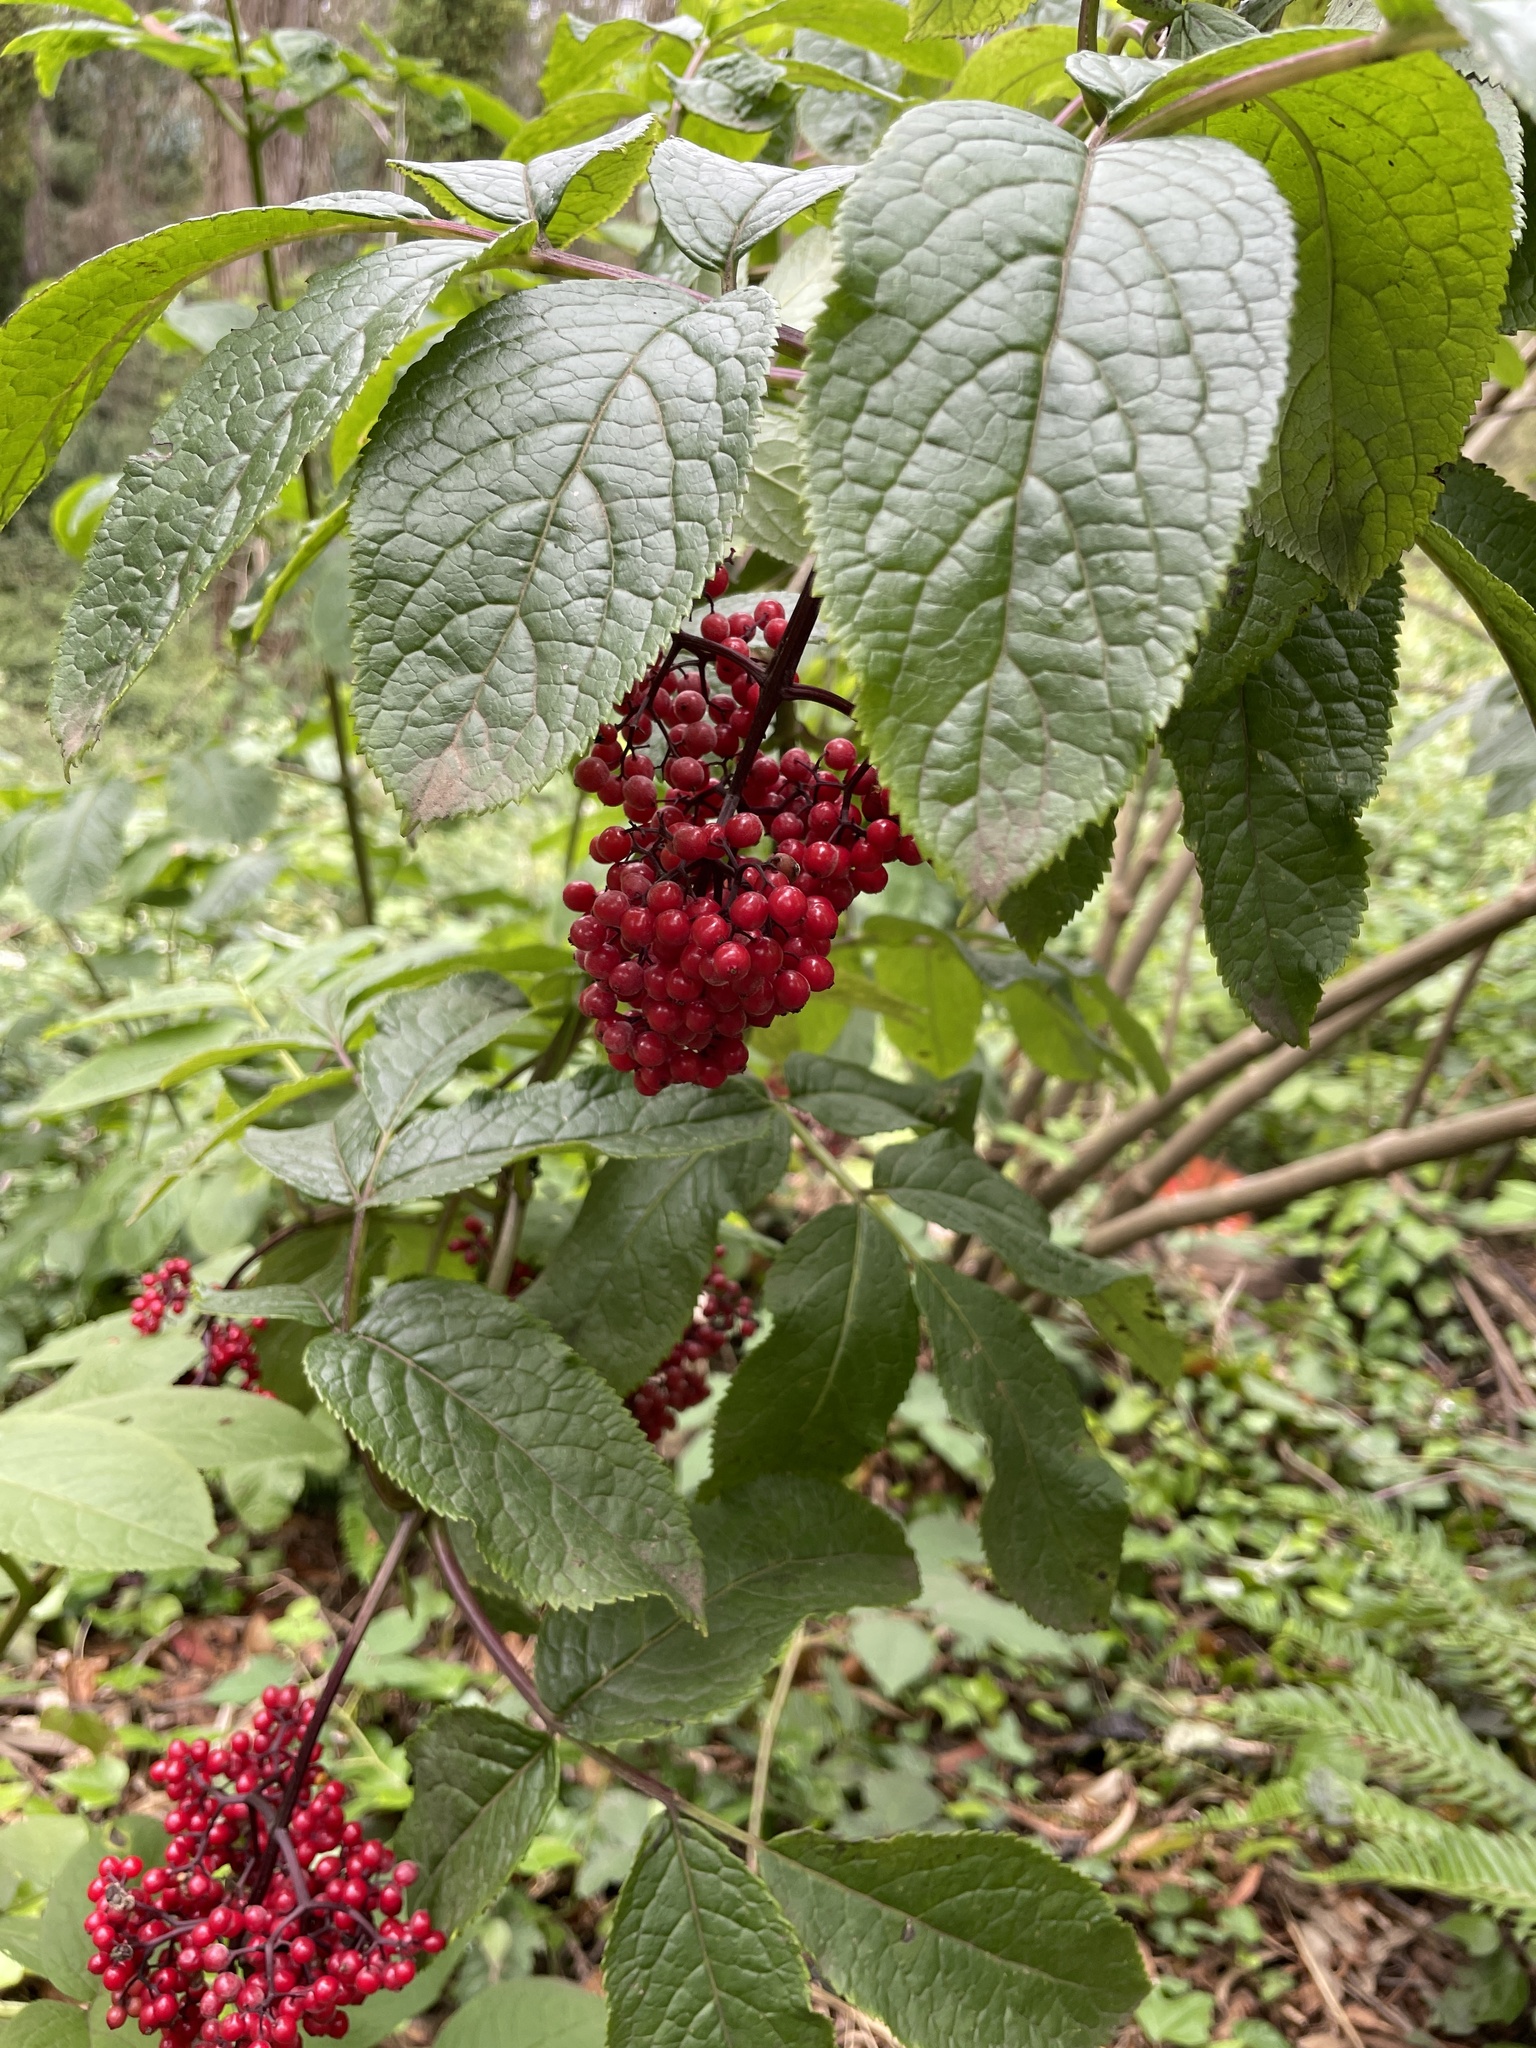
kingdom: Plantae
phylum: Tracheophyta
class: Magnoliopsida
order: Dipsacales
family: Viburnaceae
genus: Sambucus
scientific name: Sambucus racemosa
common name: Red-berried elder
